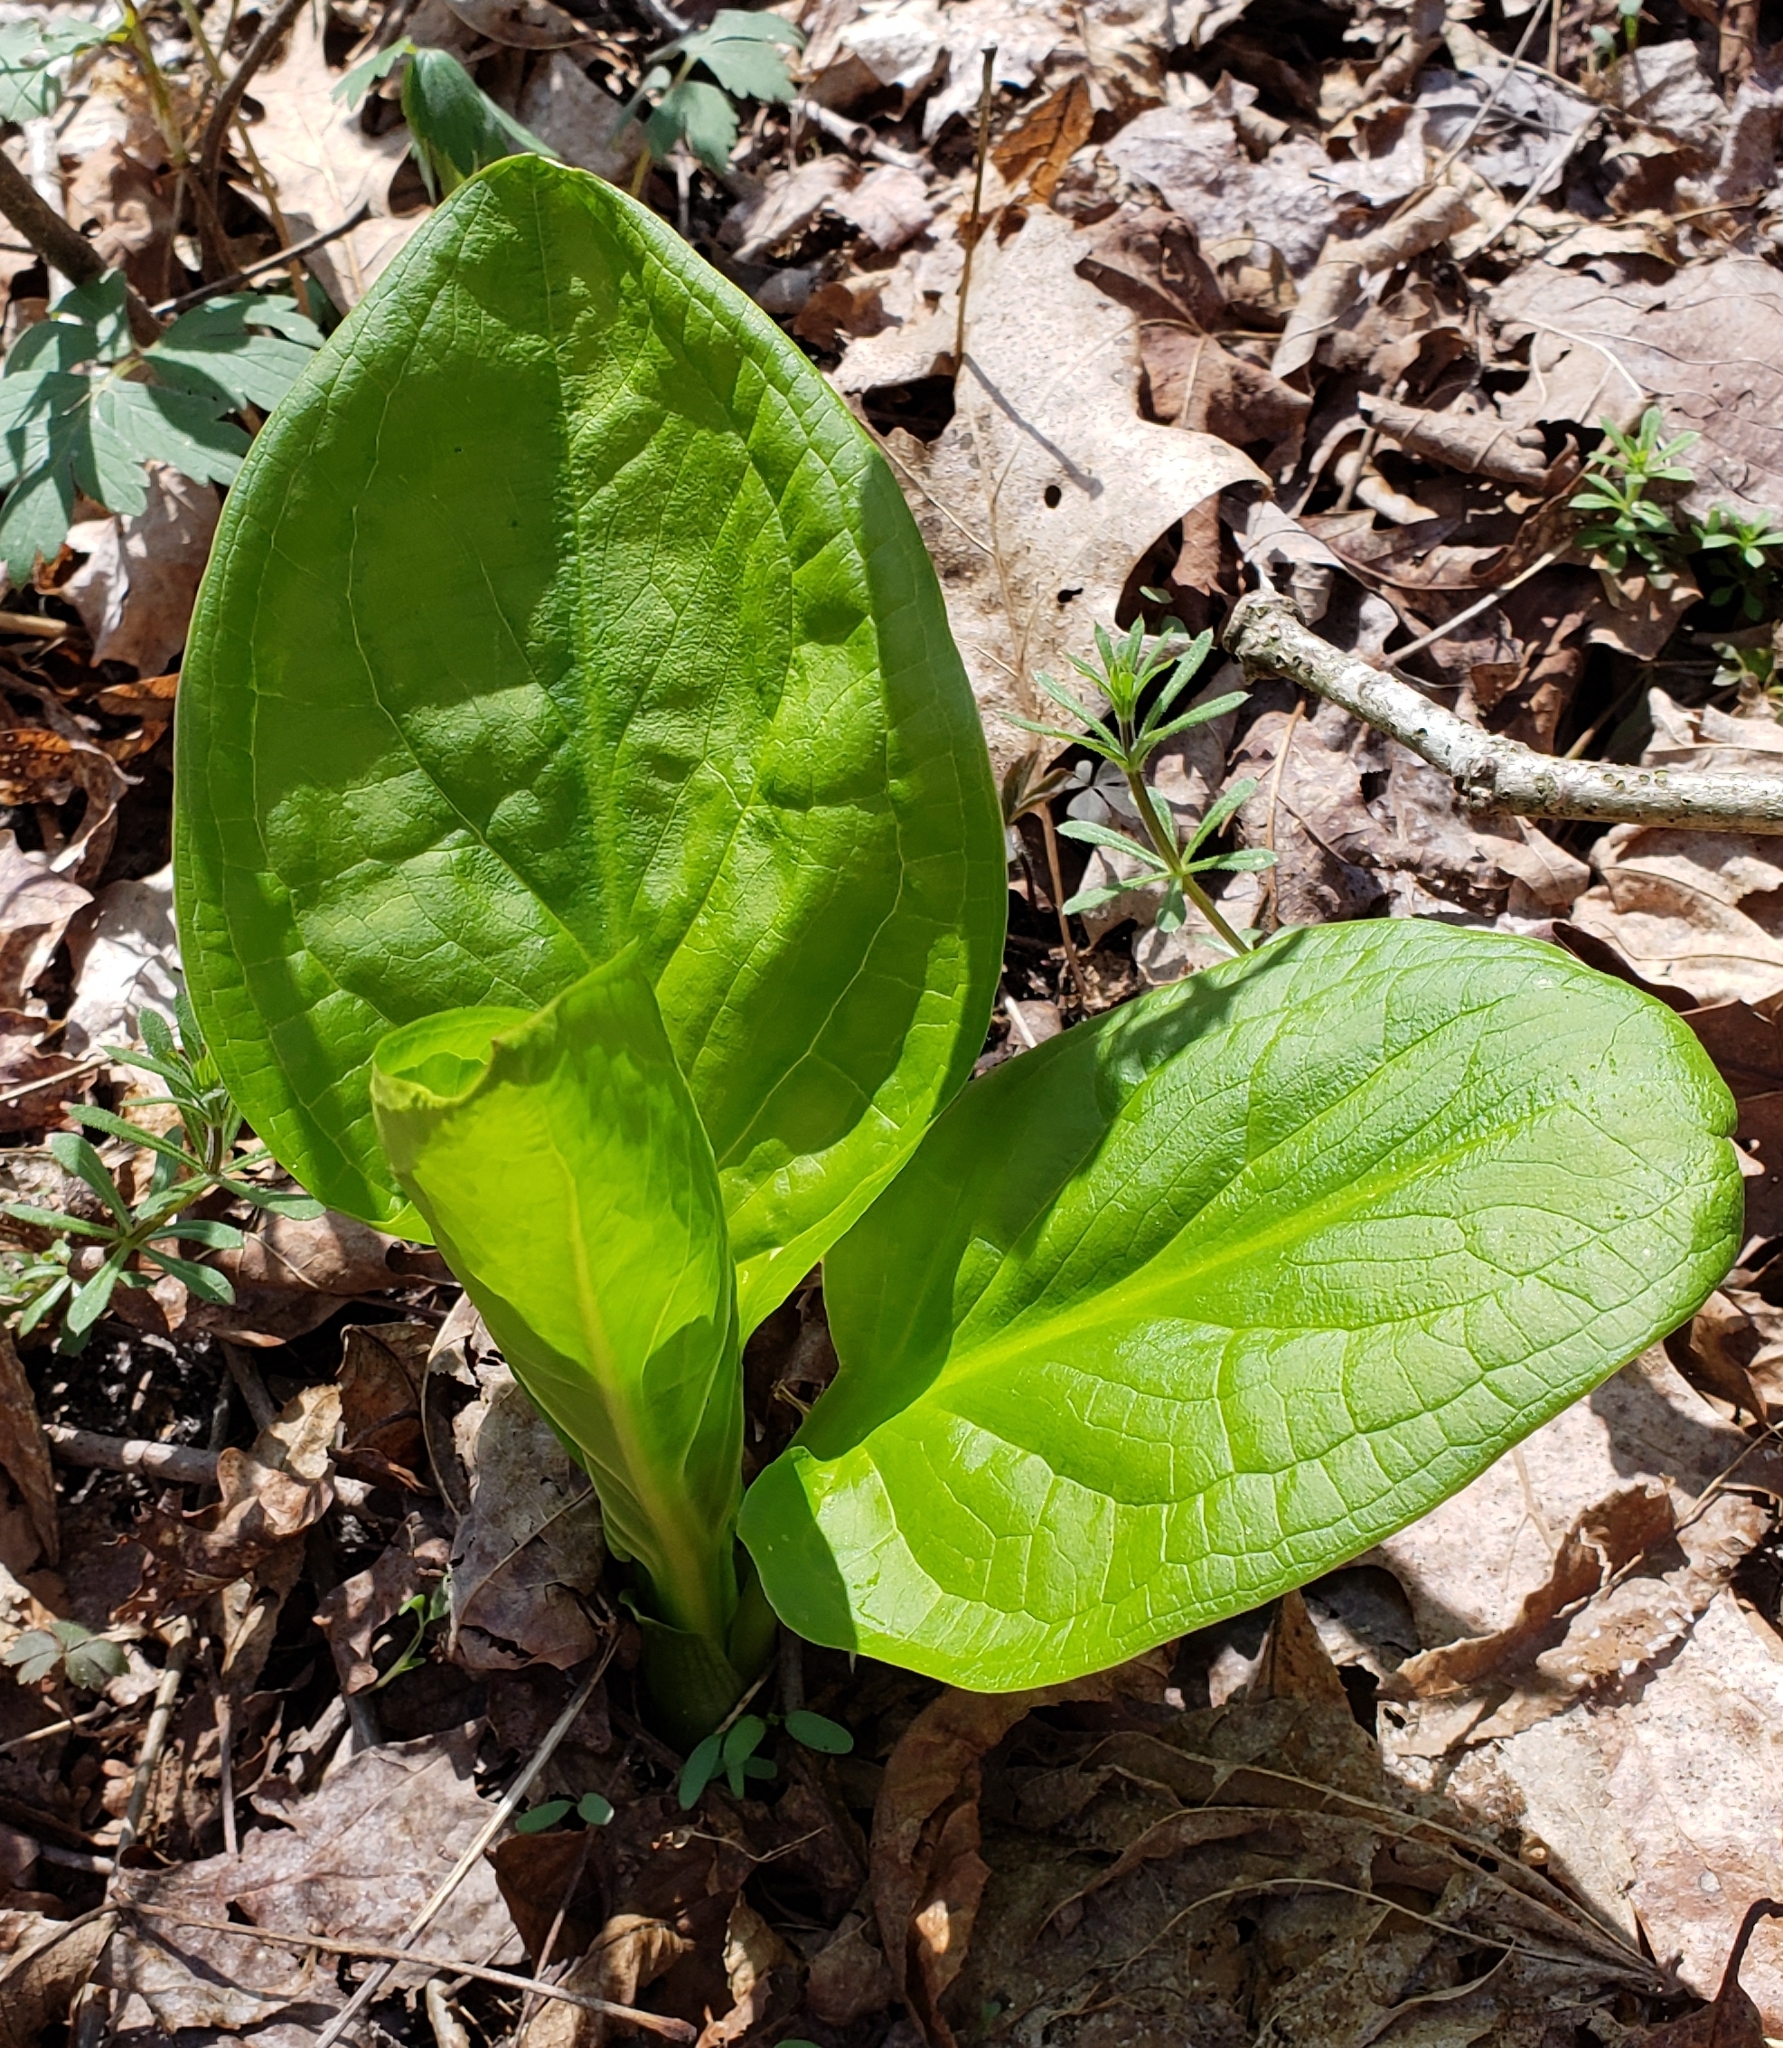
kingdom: Plantae
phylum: Tracheophyta
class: Liliopsida
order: Alismatales
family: Araceae
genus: Symplocarpus
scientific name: Symplocarpus foetidus
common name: Eastern skunk cabbage
